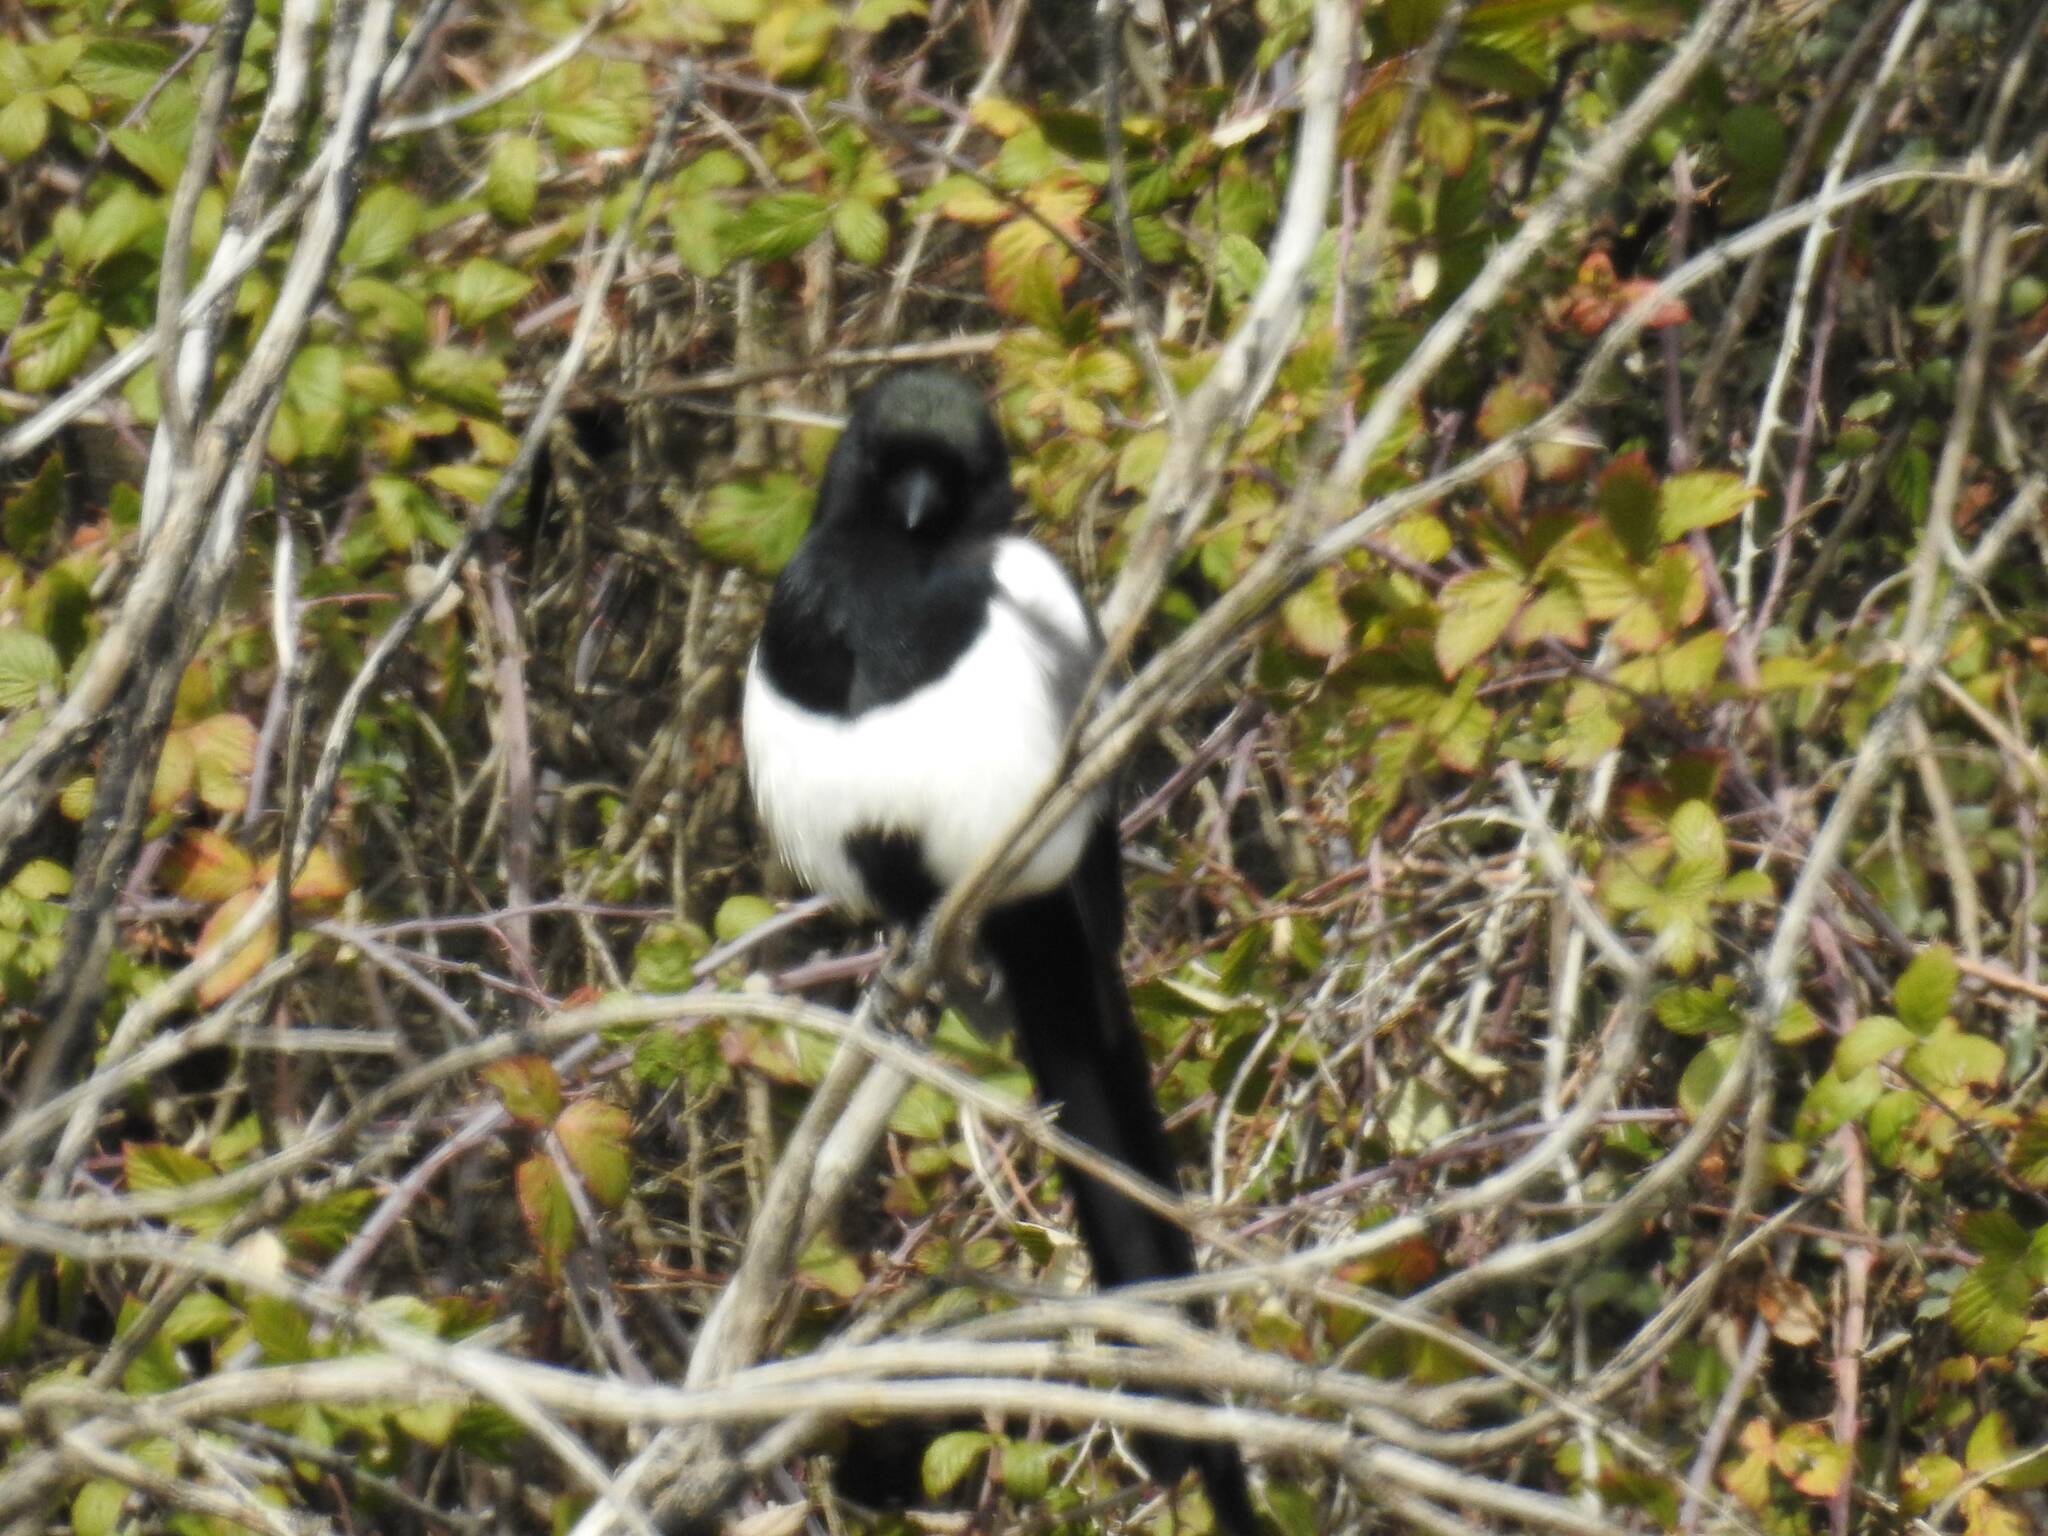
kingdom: Animalia
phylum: Chordata
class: Aves
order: Passeriformes
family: Corvidae
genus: Pica
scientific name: Pica mauritanica
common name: Maghreb magpie
